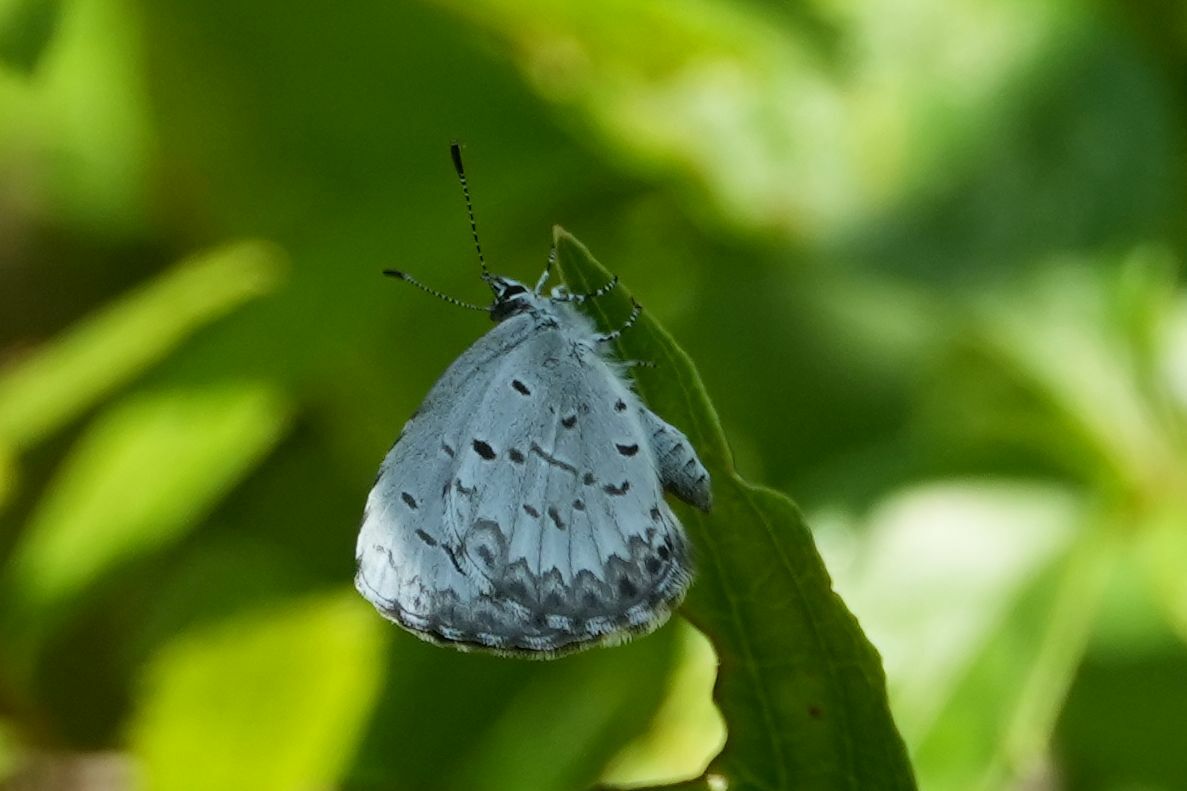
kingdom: Animalia
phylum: Arthropoda
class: Insecta
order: Lepidoptera
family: Lycaenidae
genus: Celastrina
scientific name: Celastrina lucia
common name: Lucia azure
